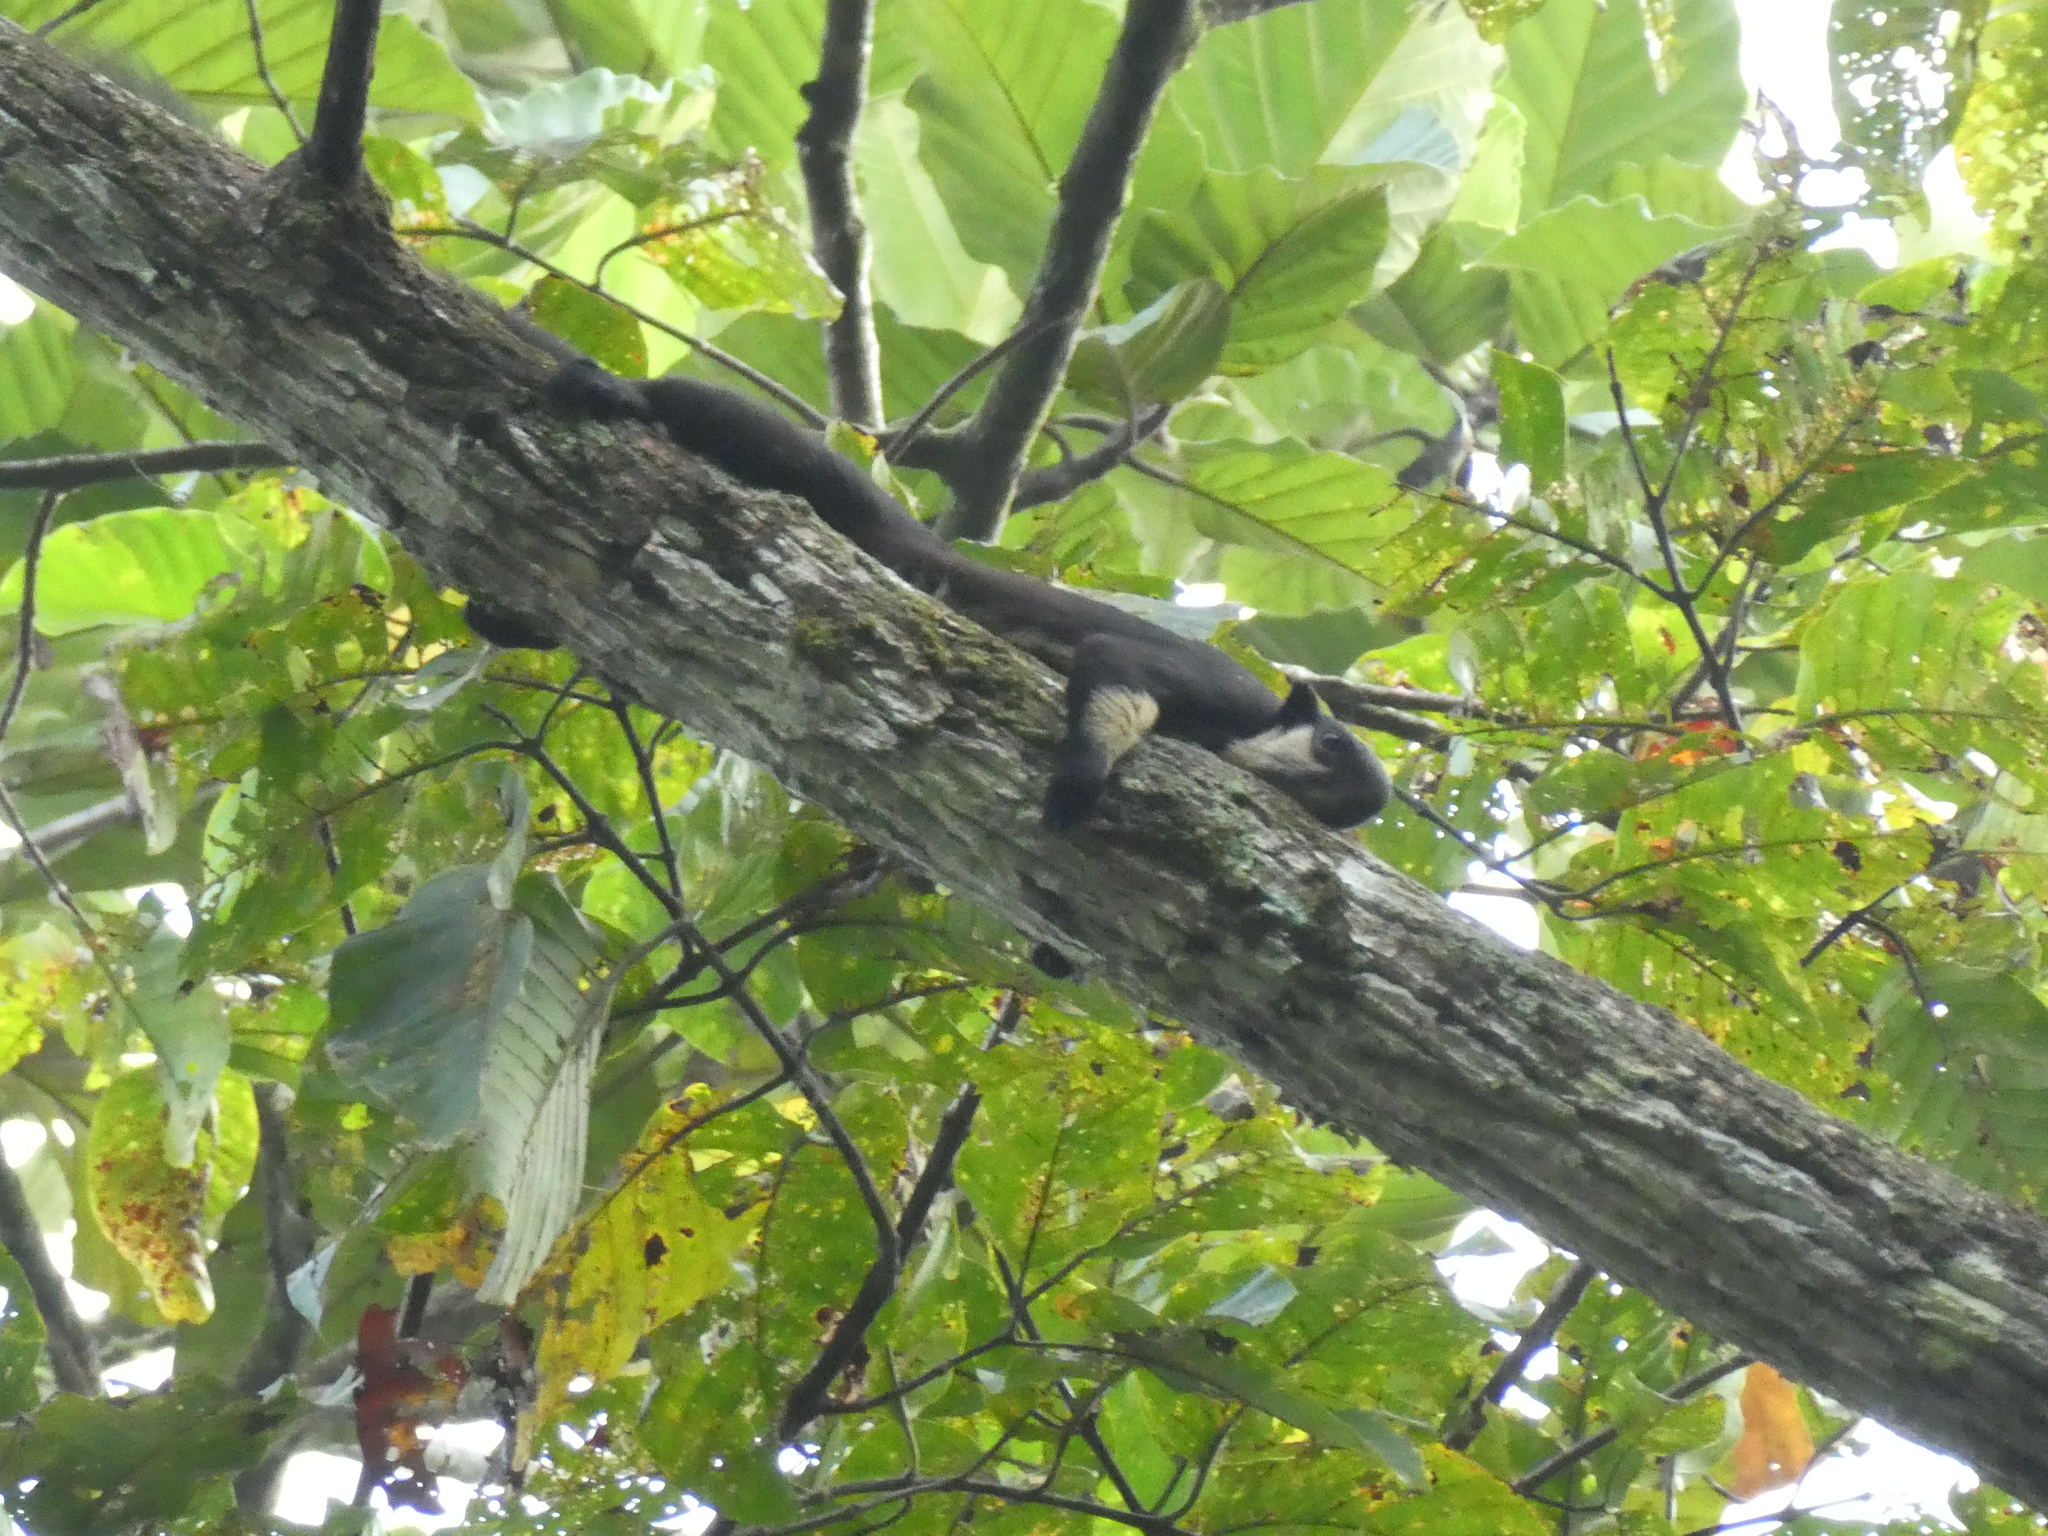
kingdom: Animalia
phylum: Chordata
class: Mammalia
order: Rodentia
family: Sciuridae
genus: Ratufa
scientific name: Ratufa bicolor
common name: Black giant squirrel
